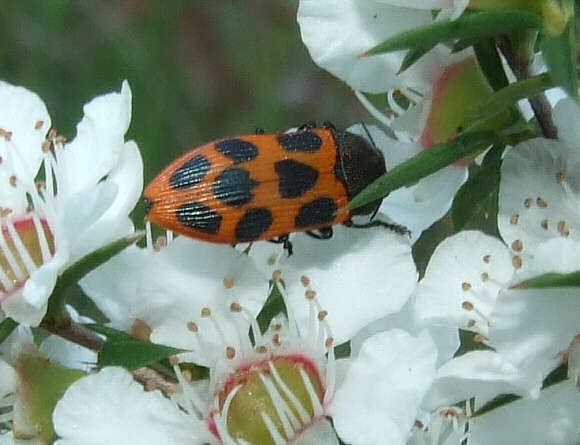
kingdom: Animalia
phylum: Arthropoda
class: Insecta
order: Coleoptera
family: Buprestidae
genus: Castiarina
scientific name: Castiarina octomaculata
